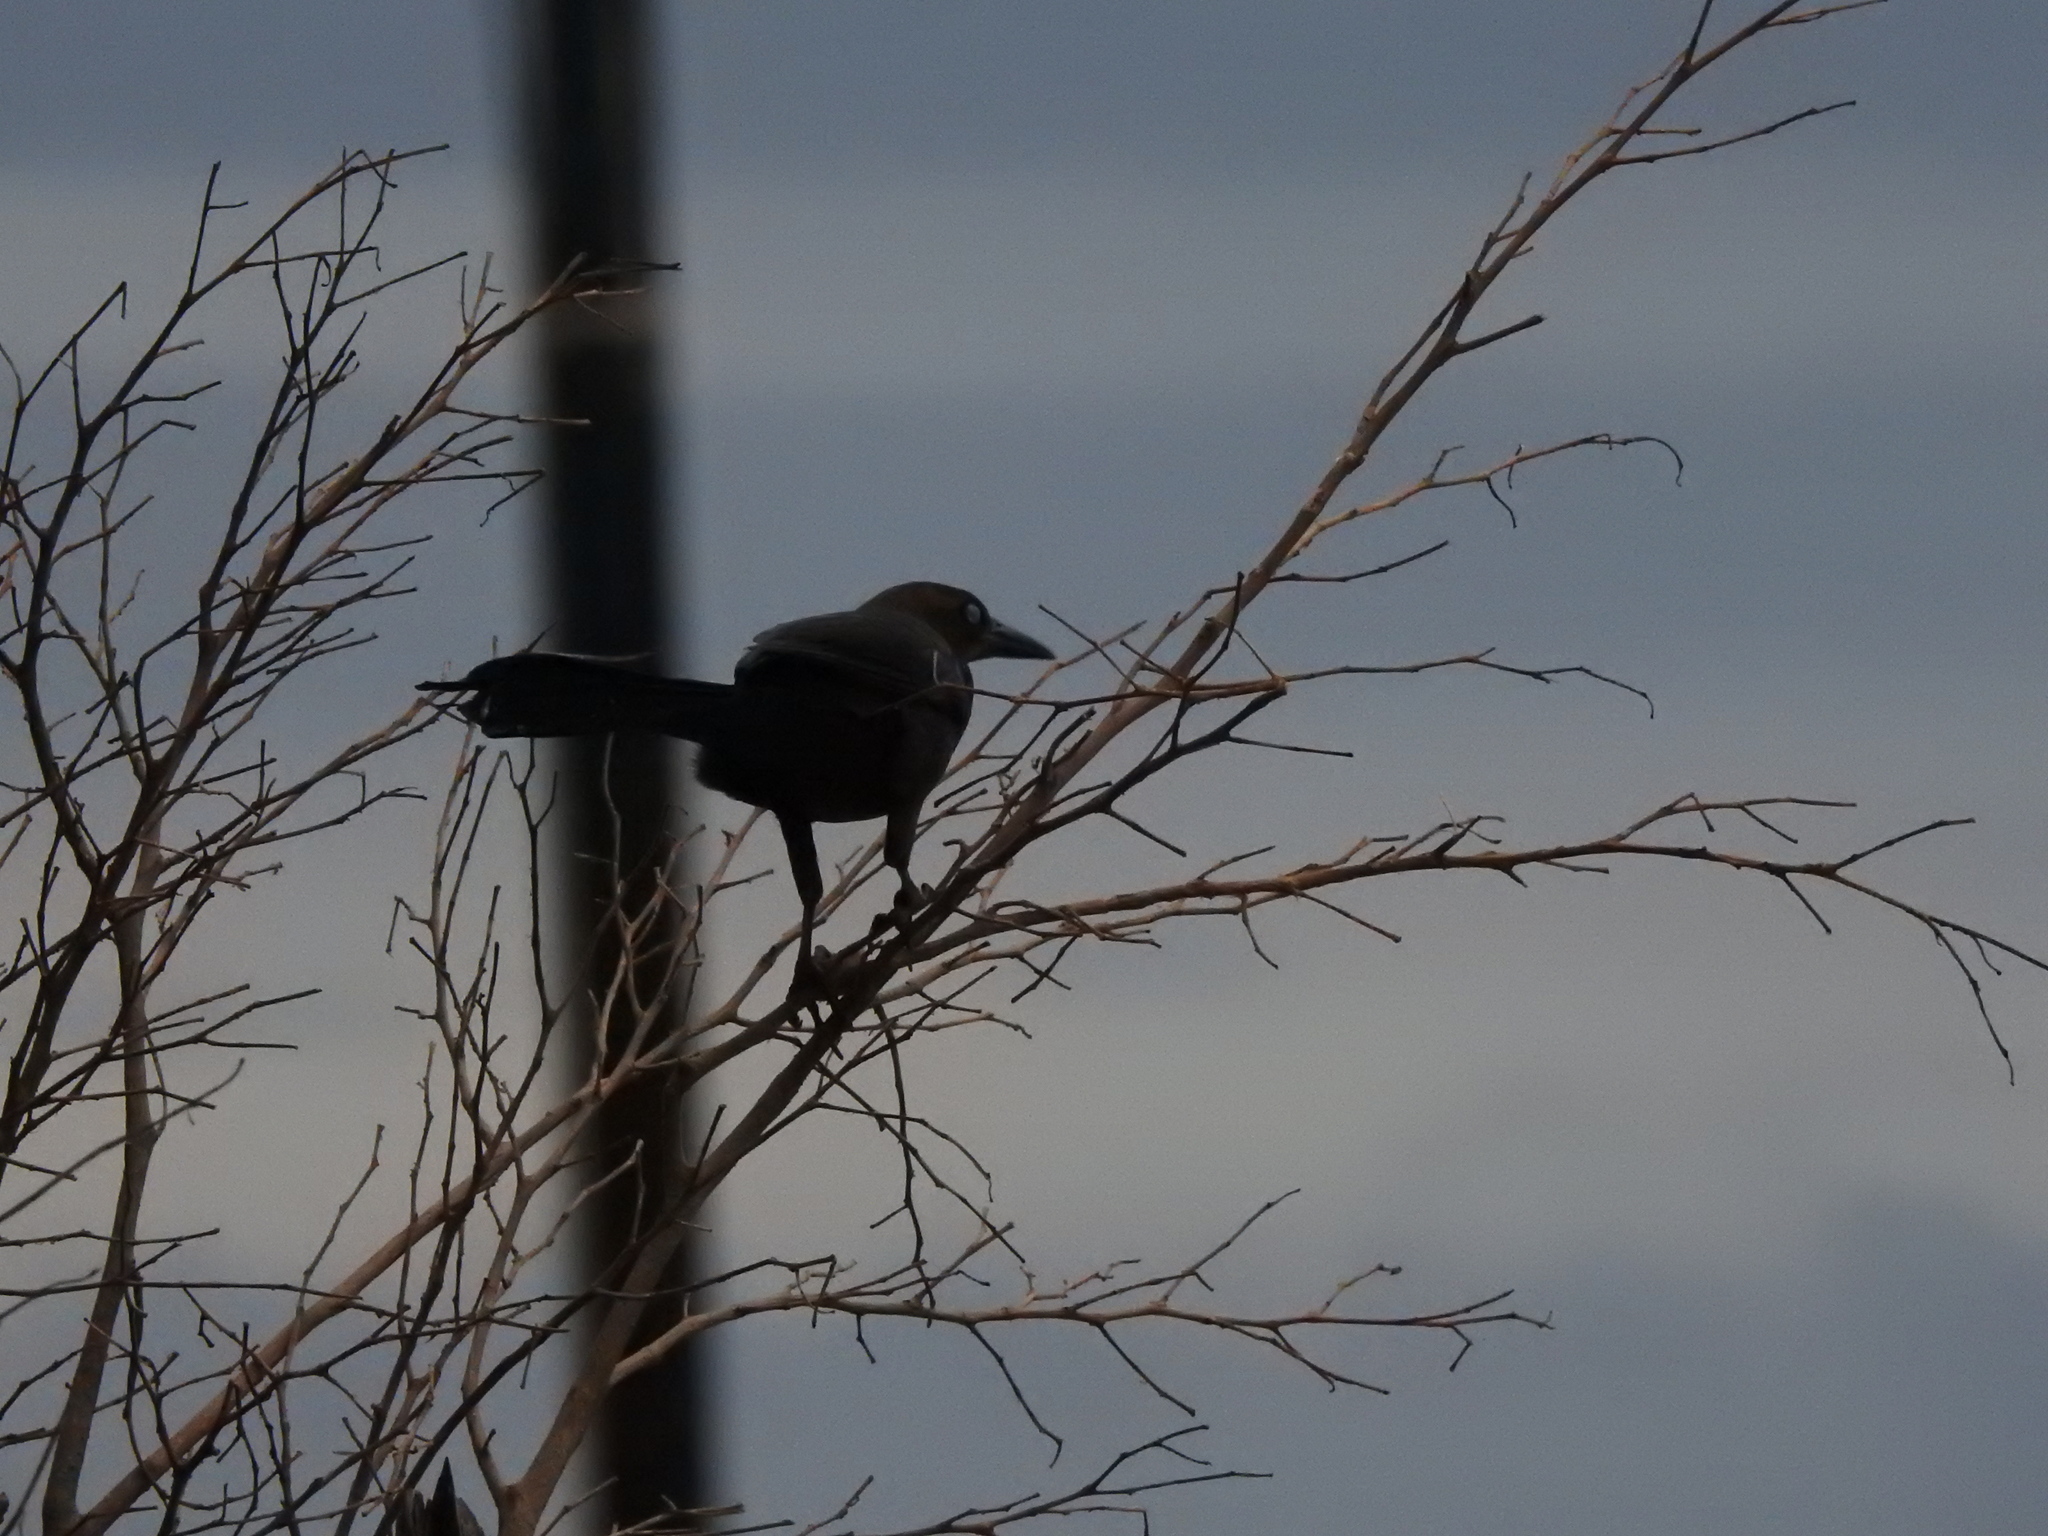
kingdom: Animalia
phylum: Chordata
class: Aves
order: Passeriformes
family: Icteridae
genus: Quiscalus
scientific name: Quiscalus mexicanus
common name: Great-tailed grackle
